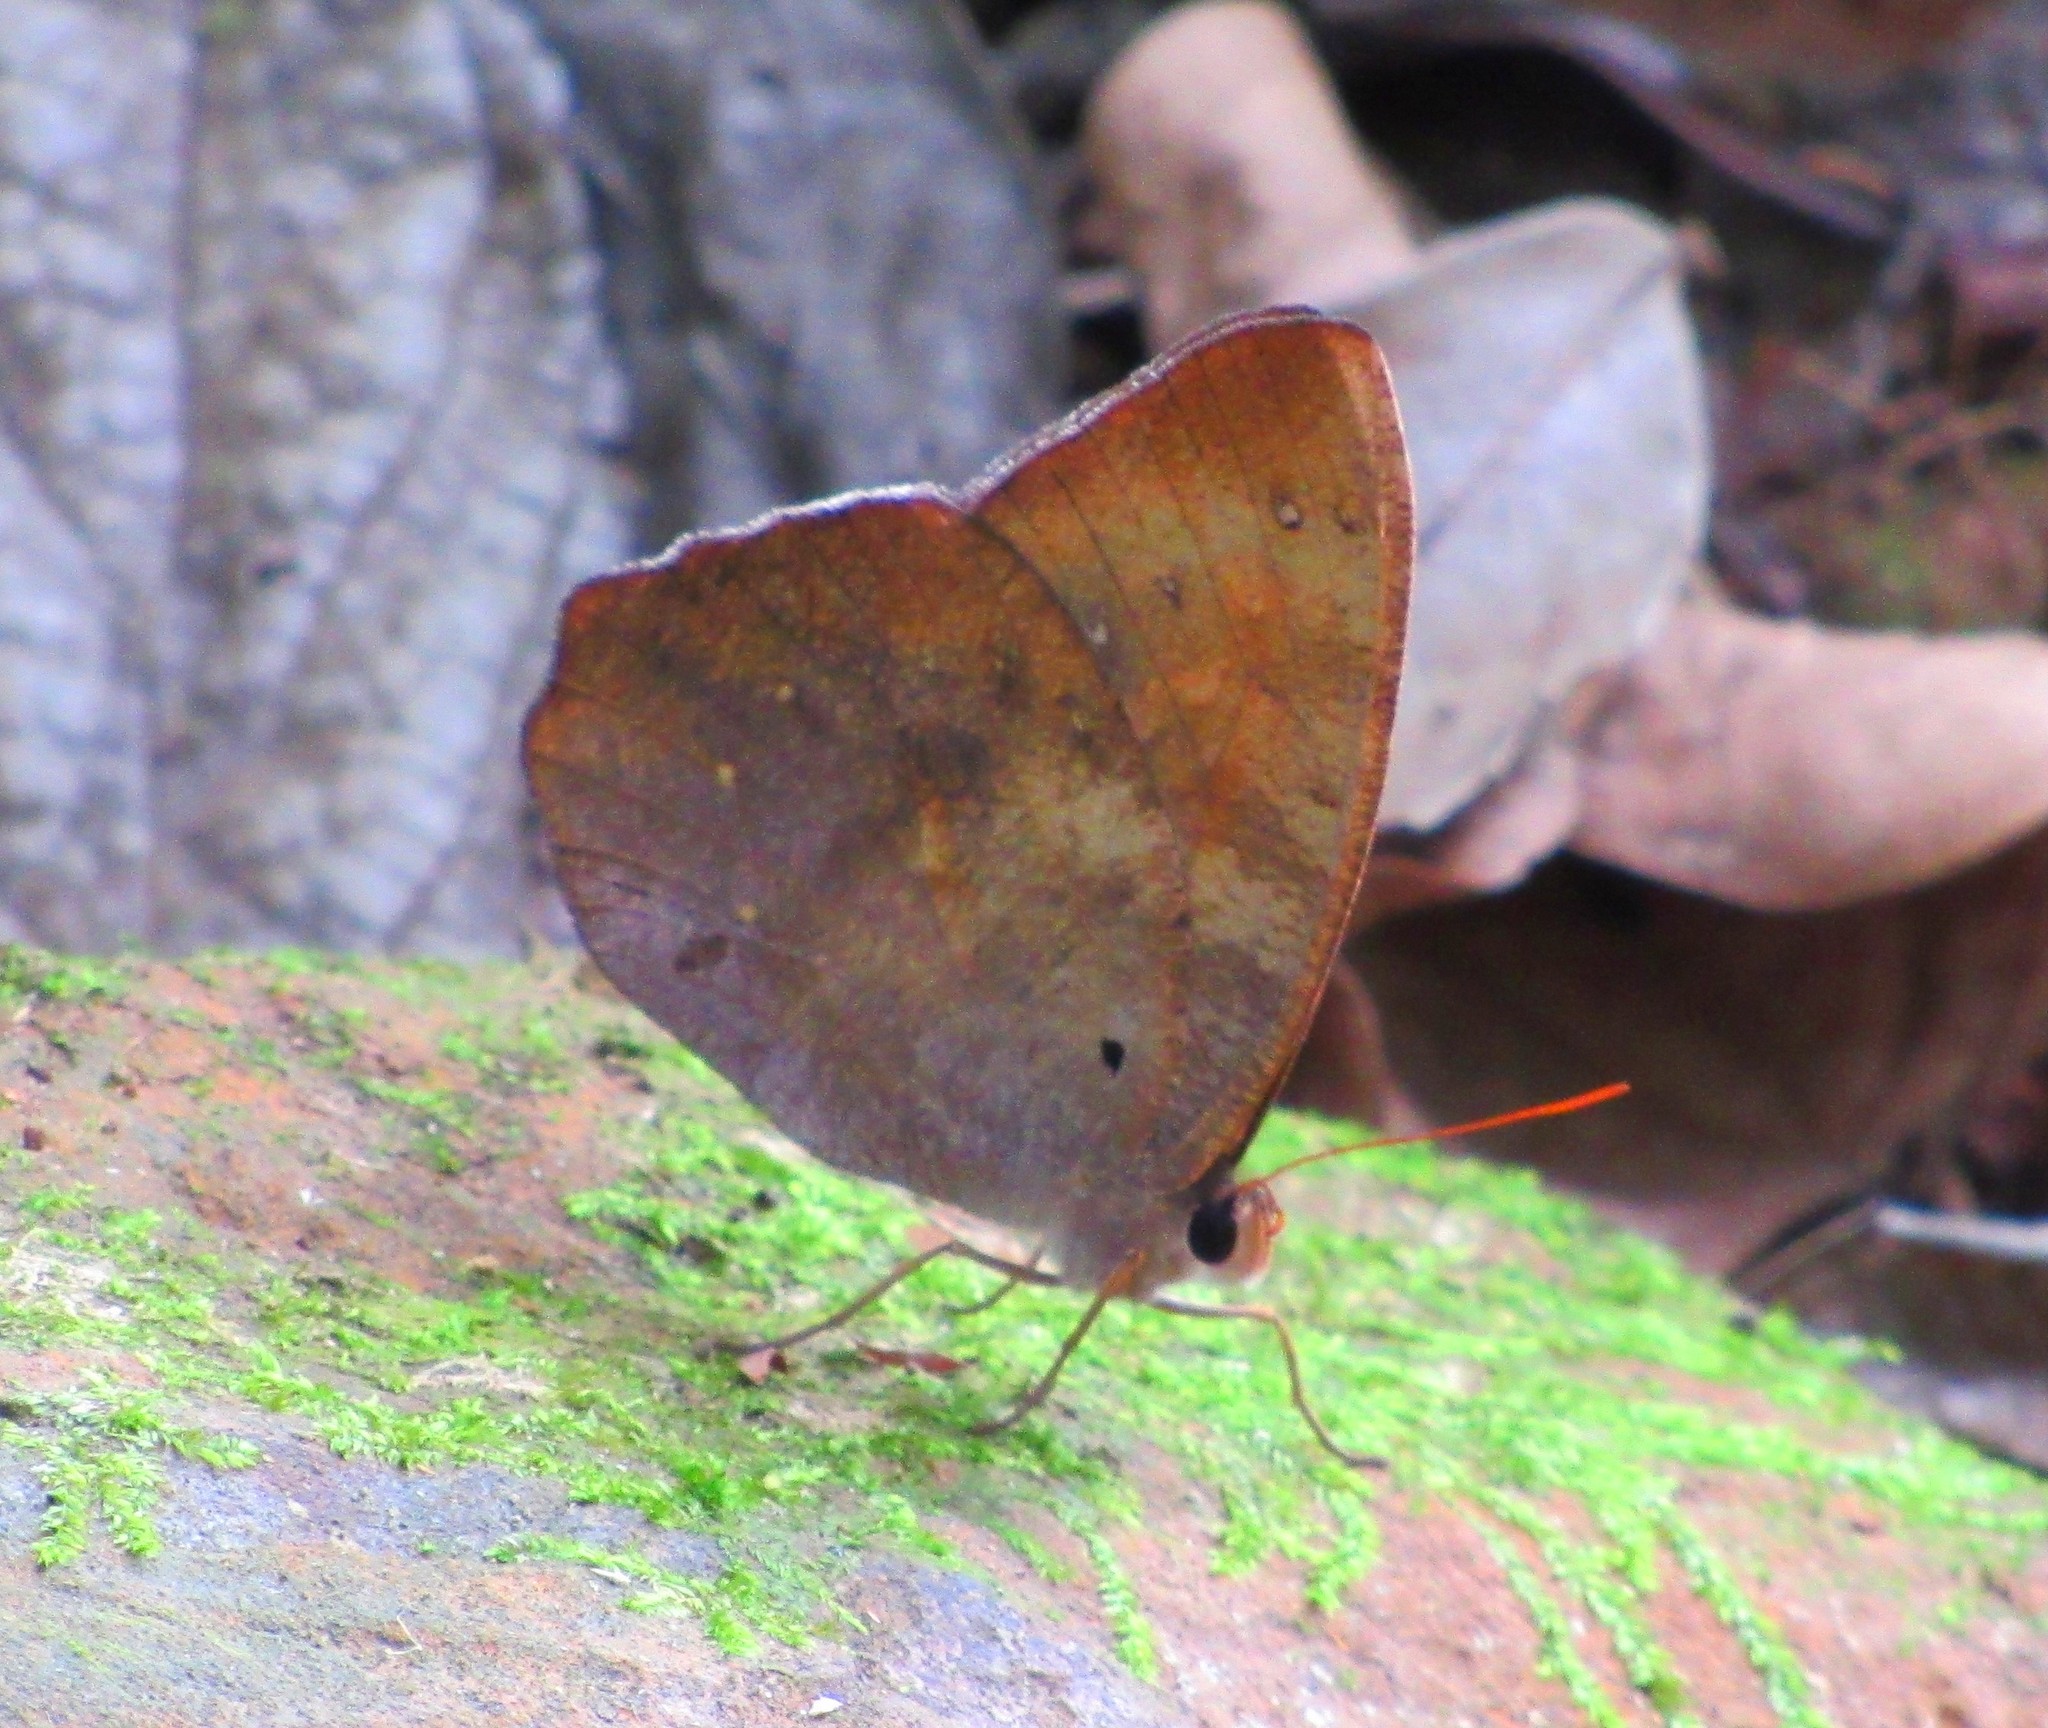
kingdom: Animalia
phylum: Arthropoda
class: Insecta
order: Lepidoptera
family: Nymphalidae
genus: Antirrhea
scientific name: Antirrhea archaea
